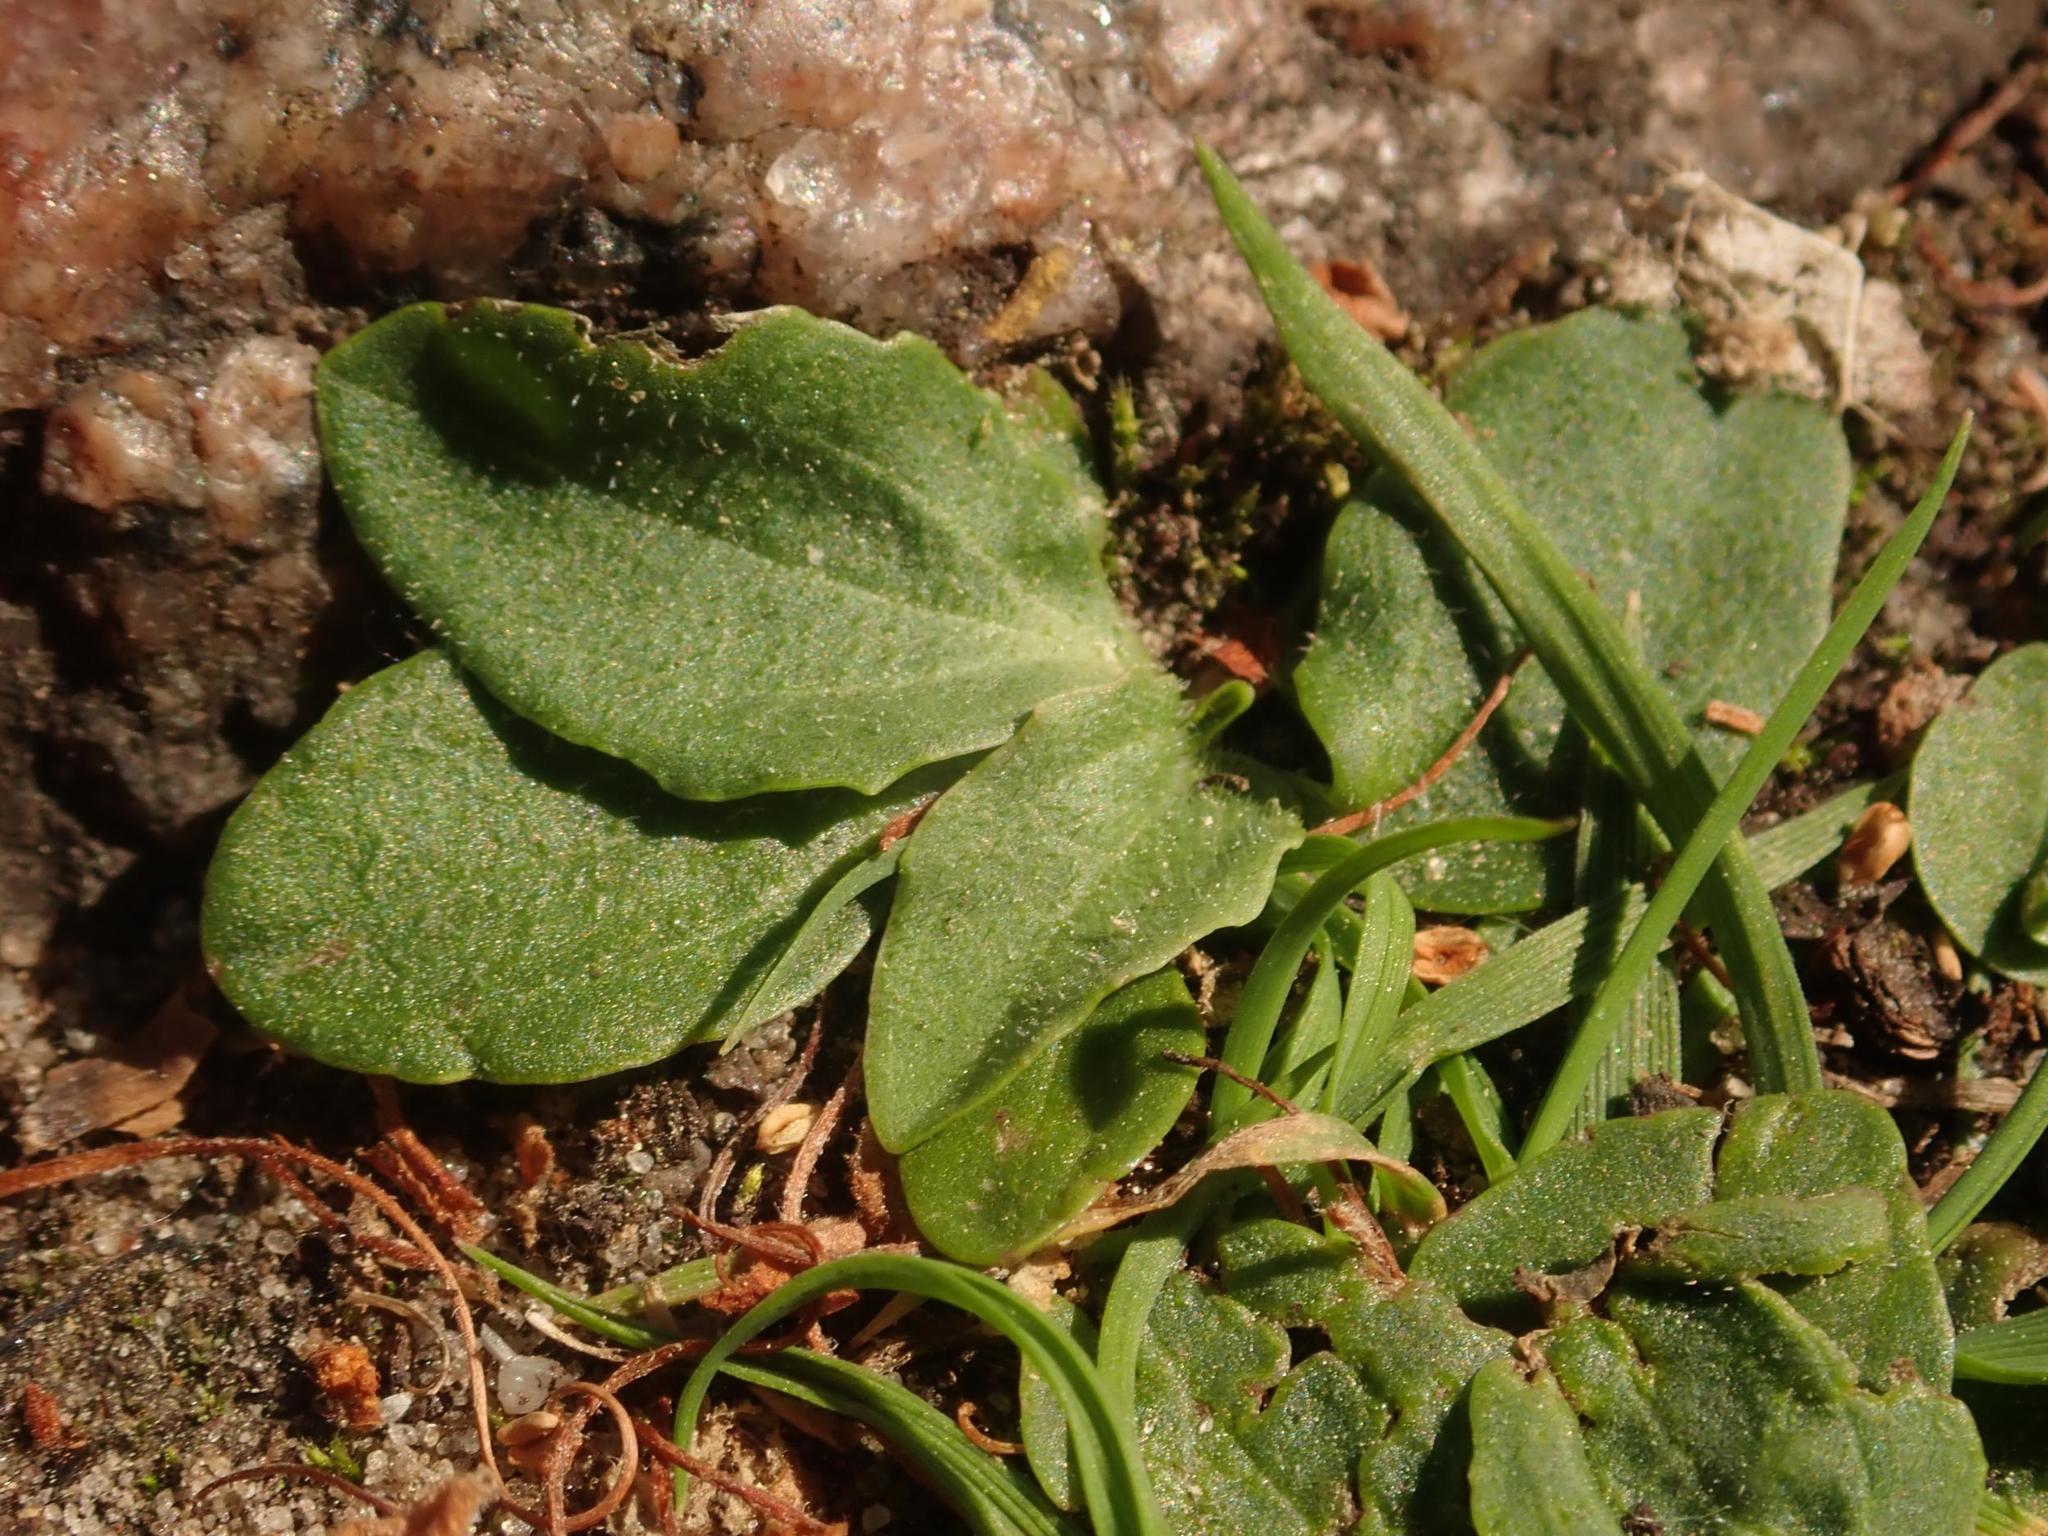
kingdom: Plantae
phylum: Tracheophyta
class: Magnoliopsida
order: Lamiales
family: Plantaginaceae
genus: Plantago
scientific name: Plantago major
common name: Common plantain
